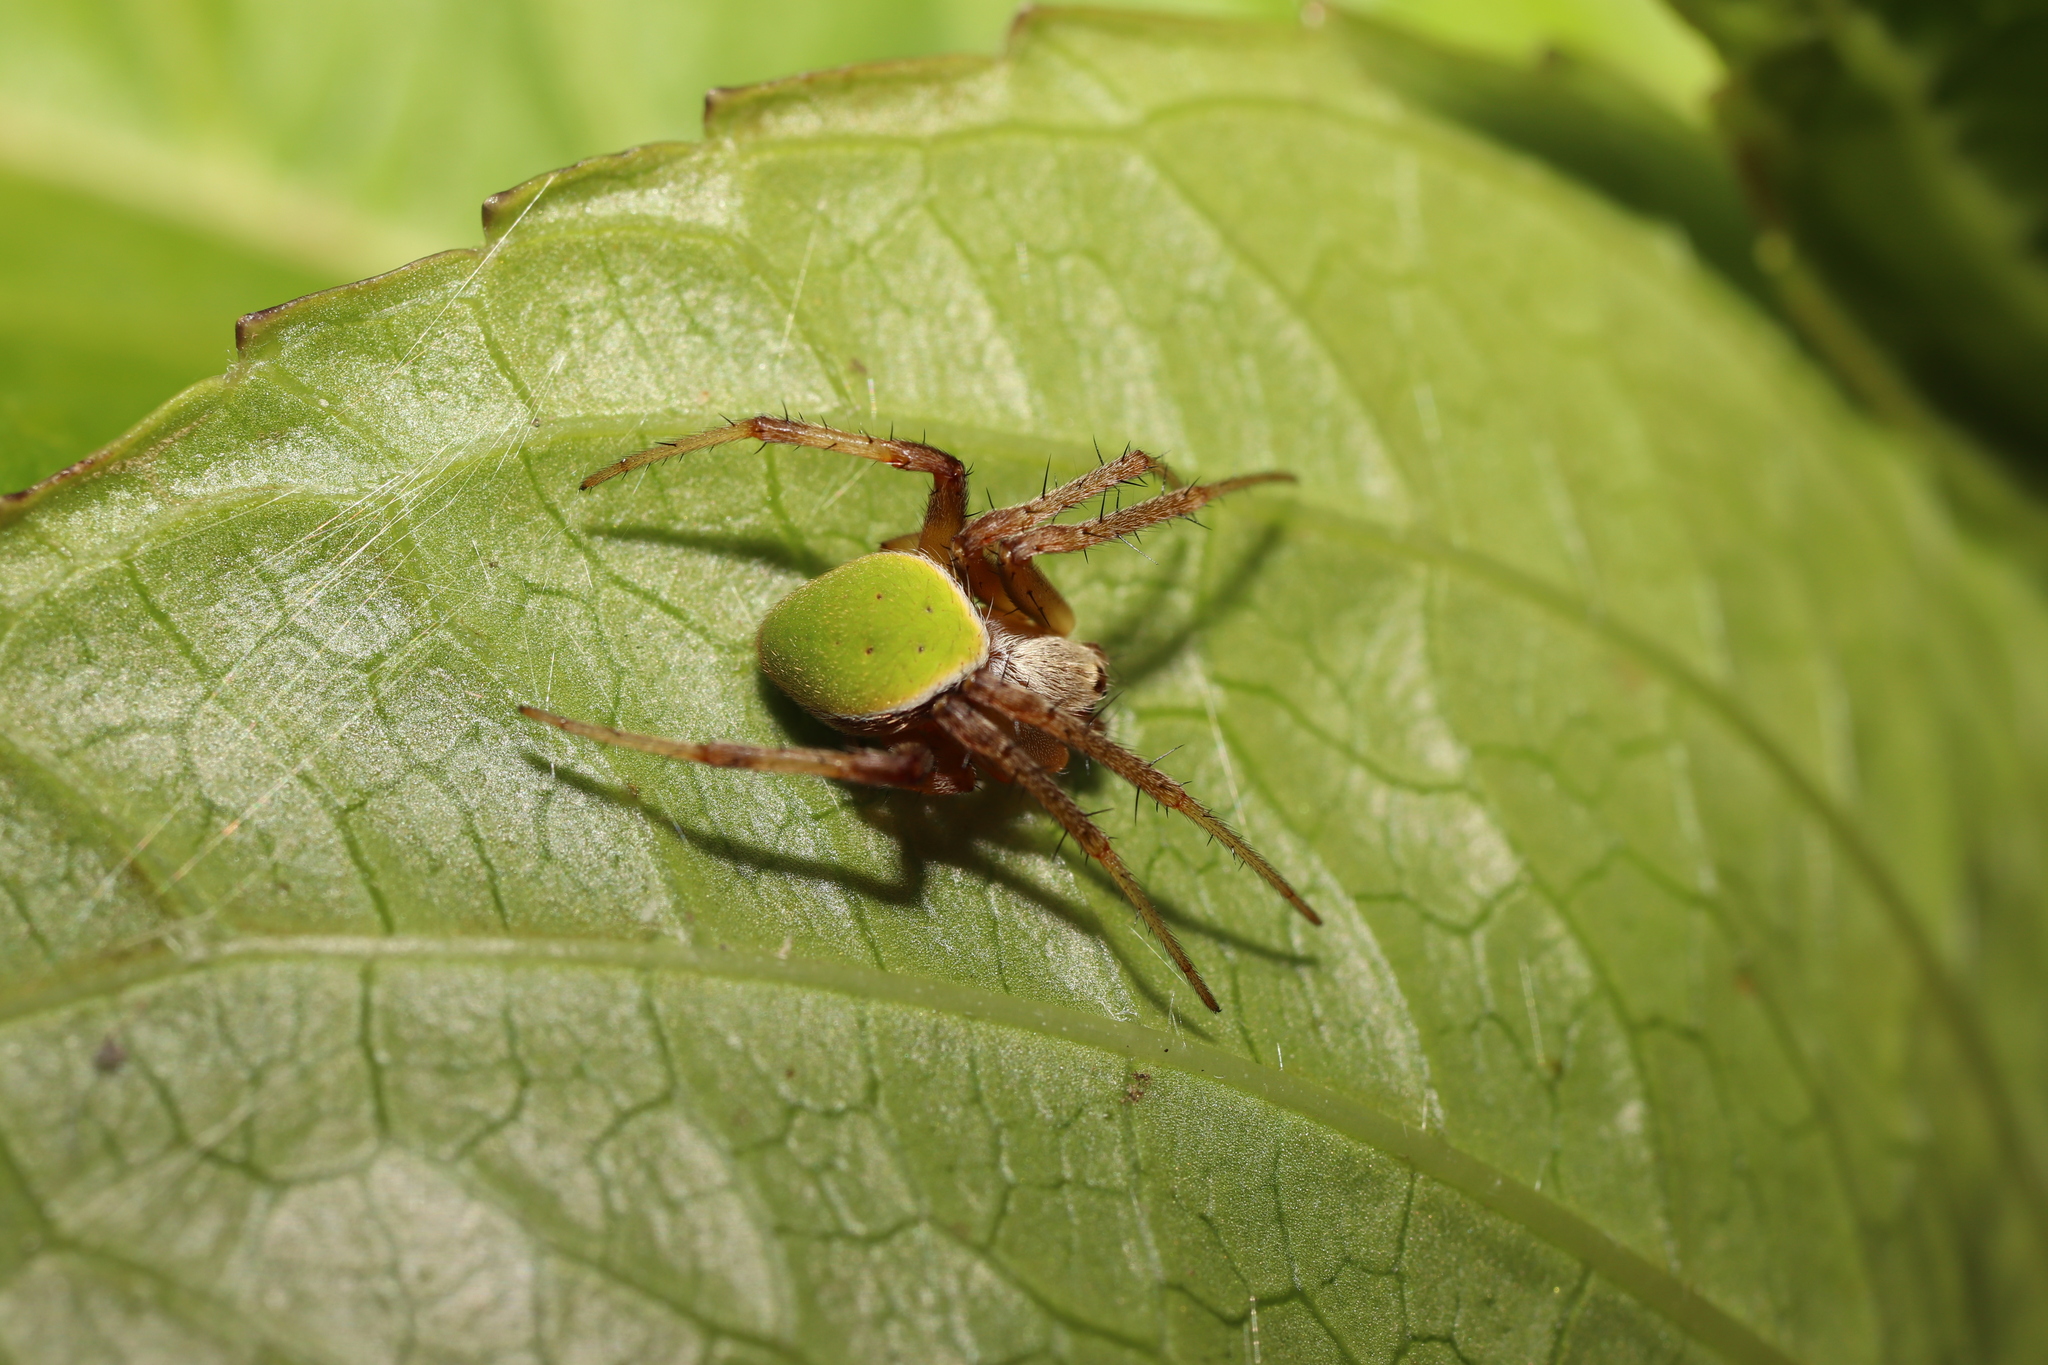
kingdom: Animalia
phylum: Arthropoda
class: Arachnida
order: Araneae
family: Araneidae
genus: Neoscona
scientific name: Neoscona mellotteei
